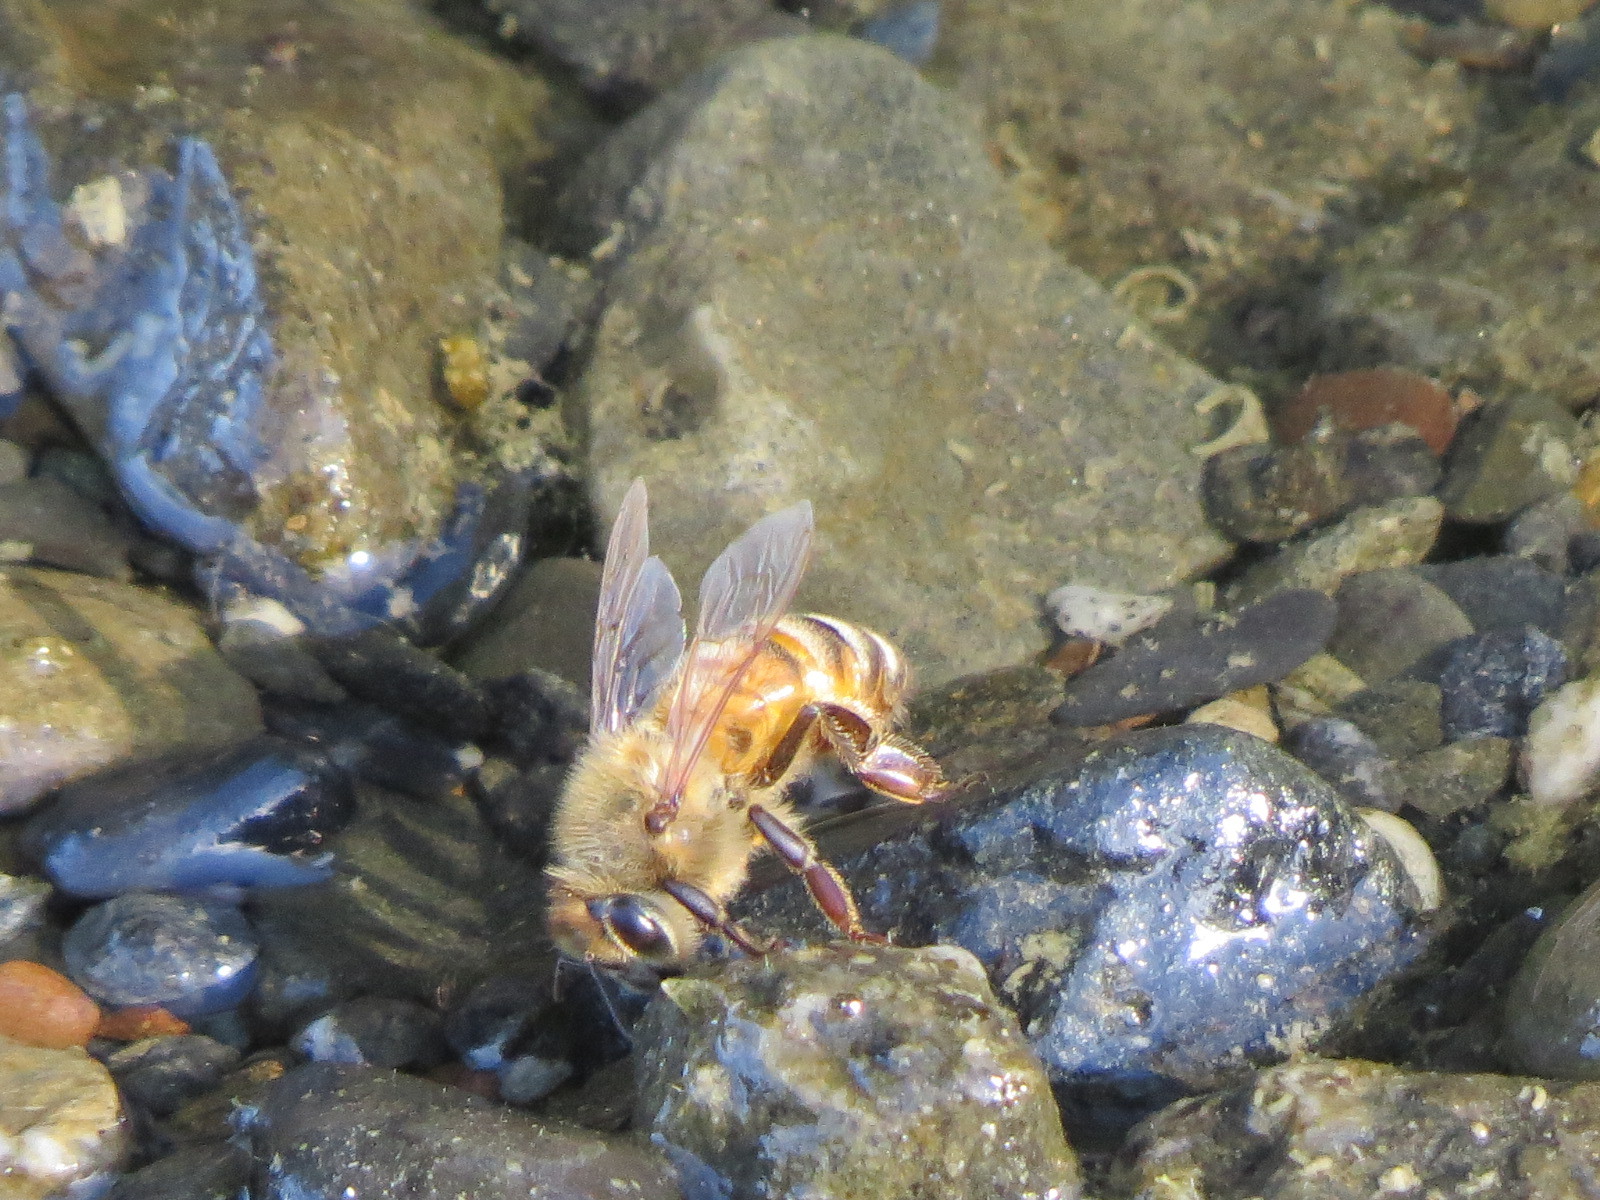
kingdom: Animalia
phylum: Arthropoda
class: Insecta
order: Hymenoptera
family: Apidae
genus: Apis
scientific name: Apis mellifera
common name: Honey bee
